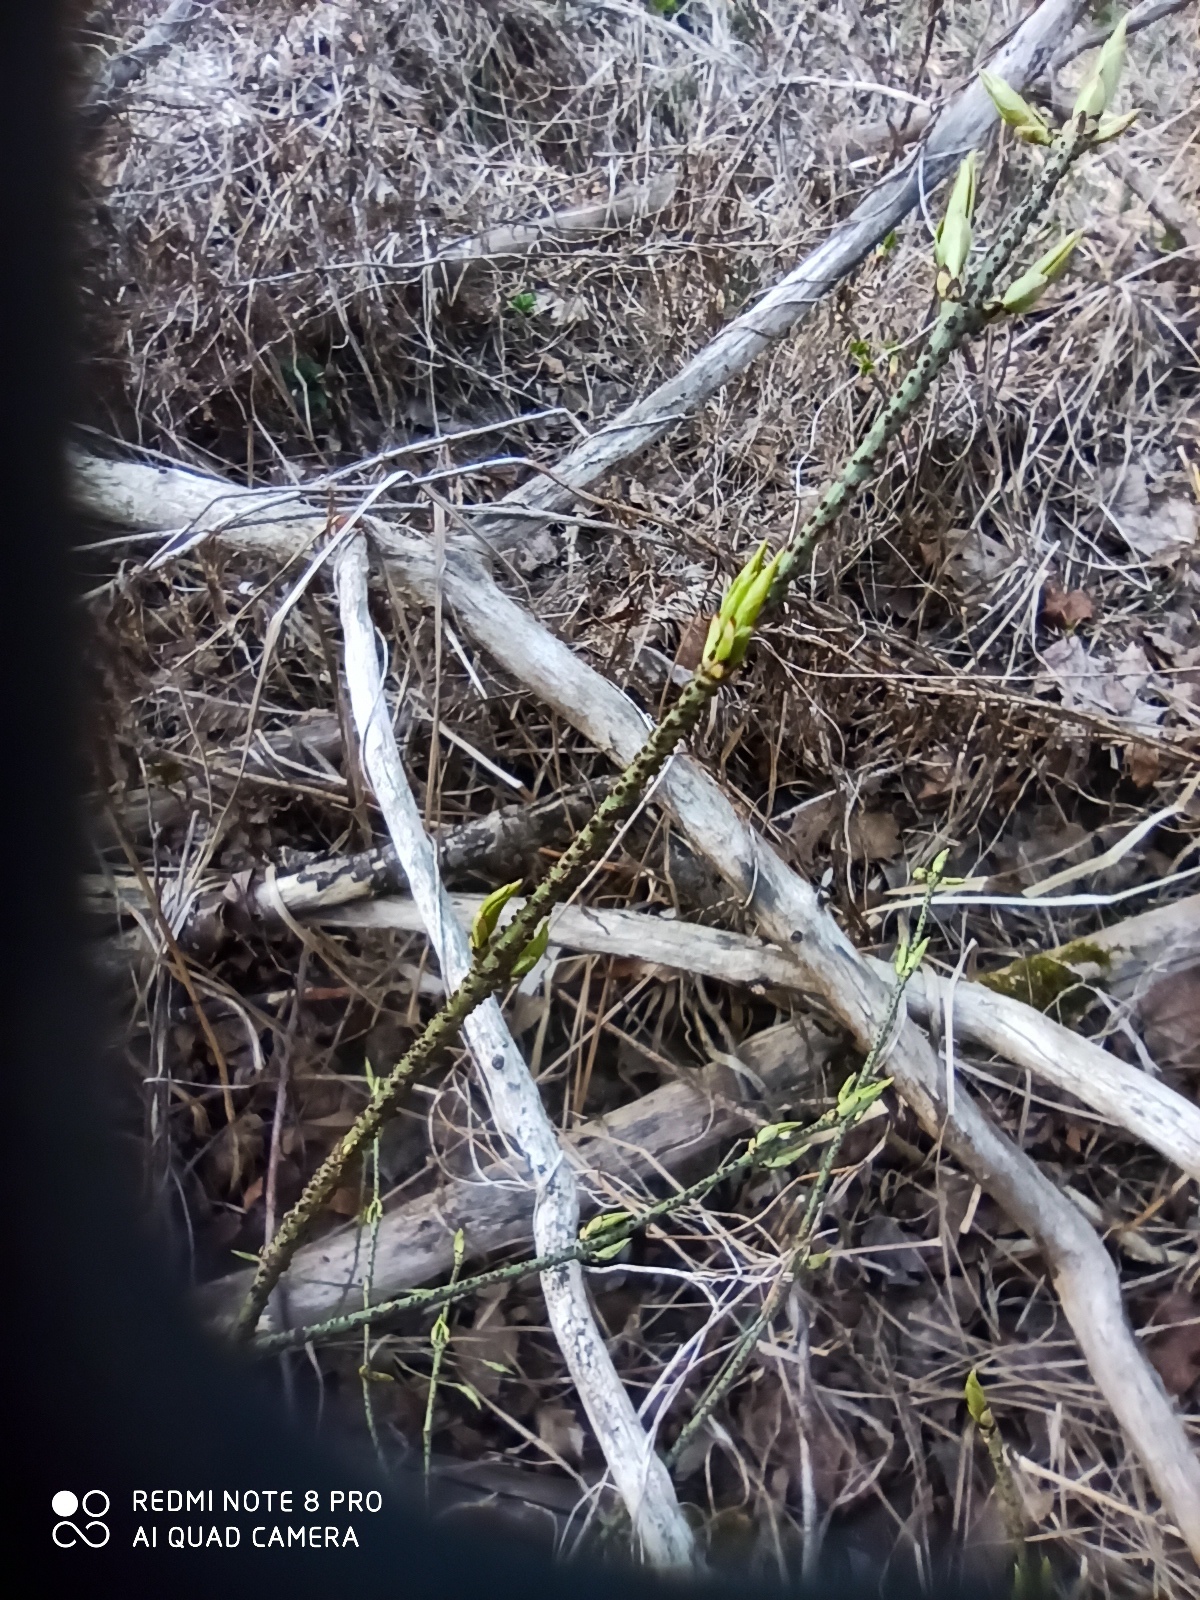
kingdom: Plantae
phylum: Tracheophyta
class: Magnoliopsida
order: Celastrales
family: Celastraceae
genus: Euonymus
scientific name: Euonymus verrucosus
